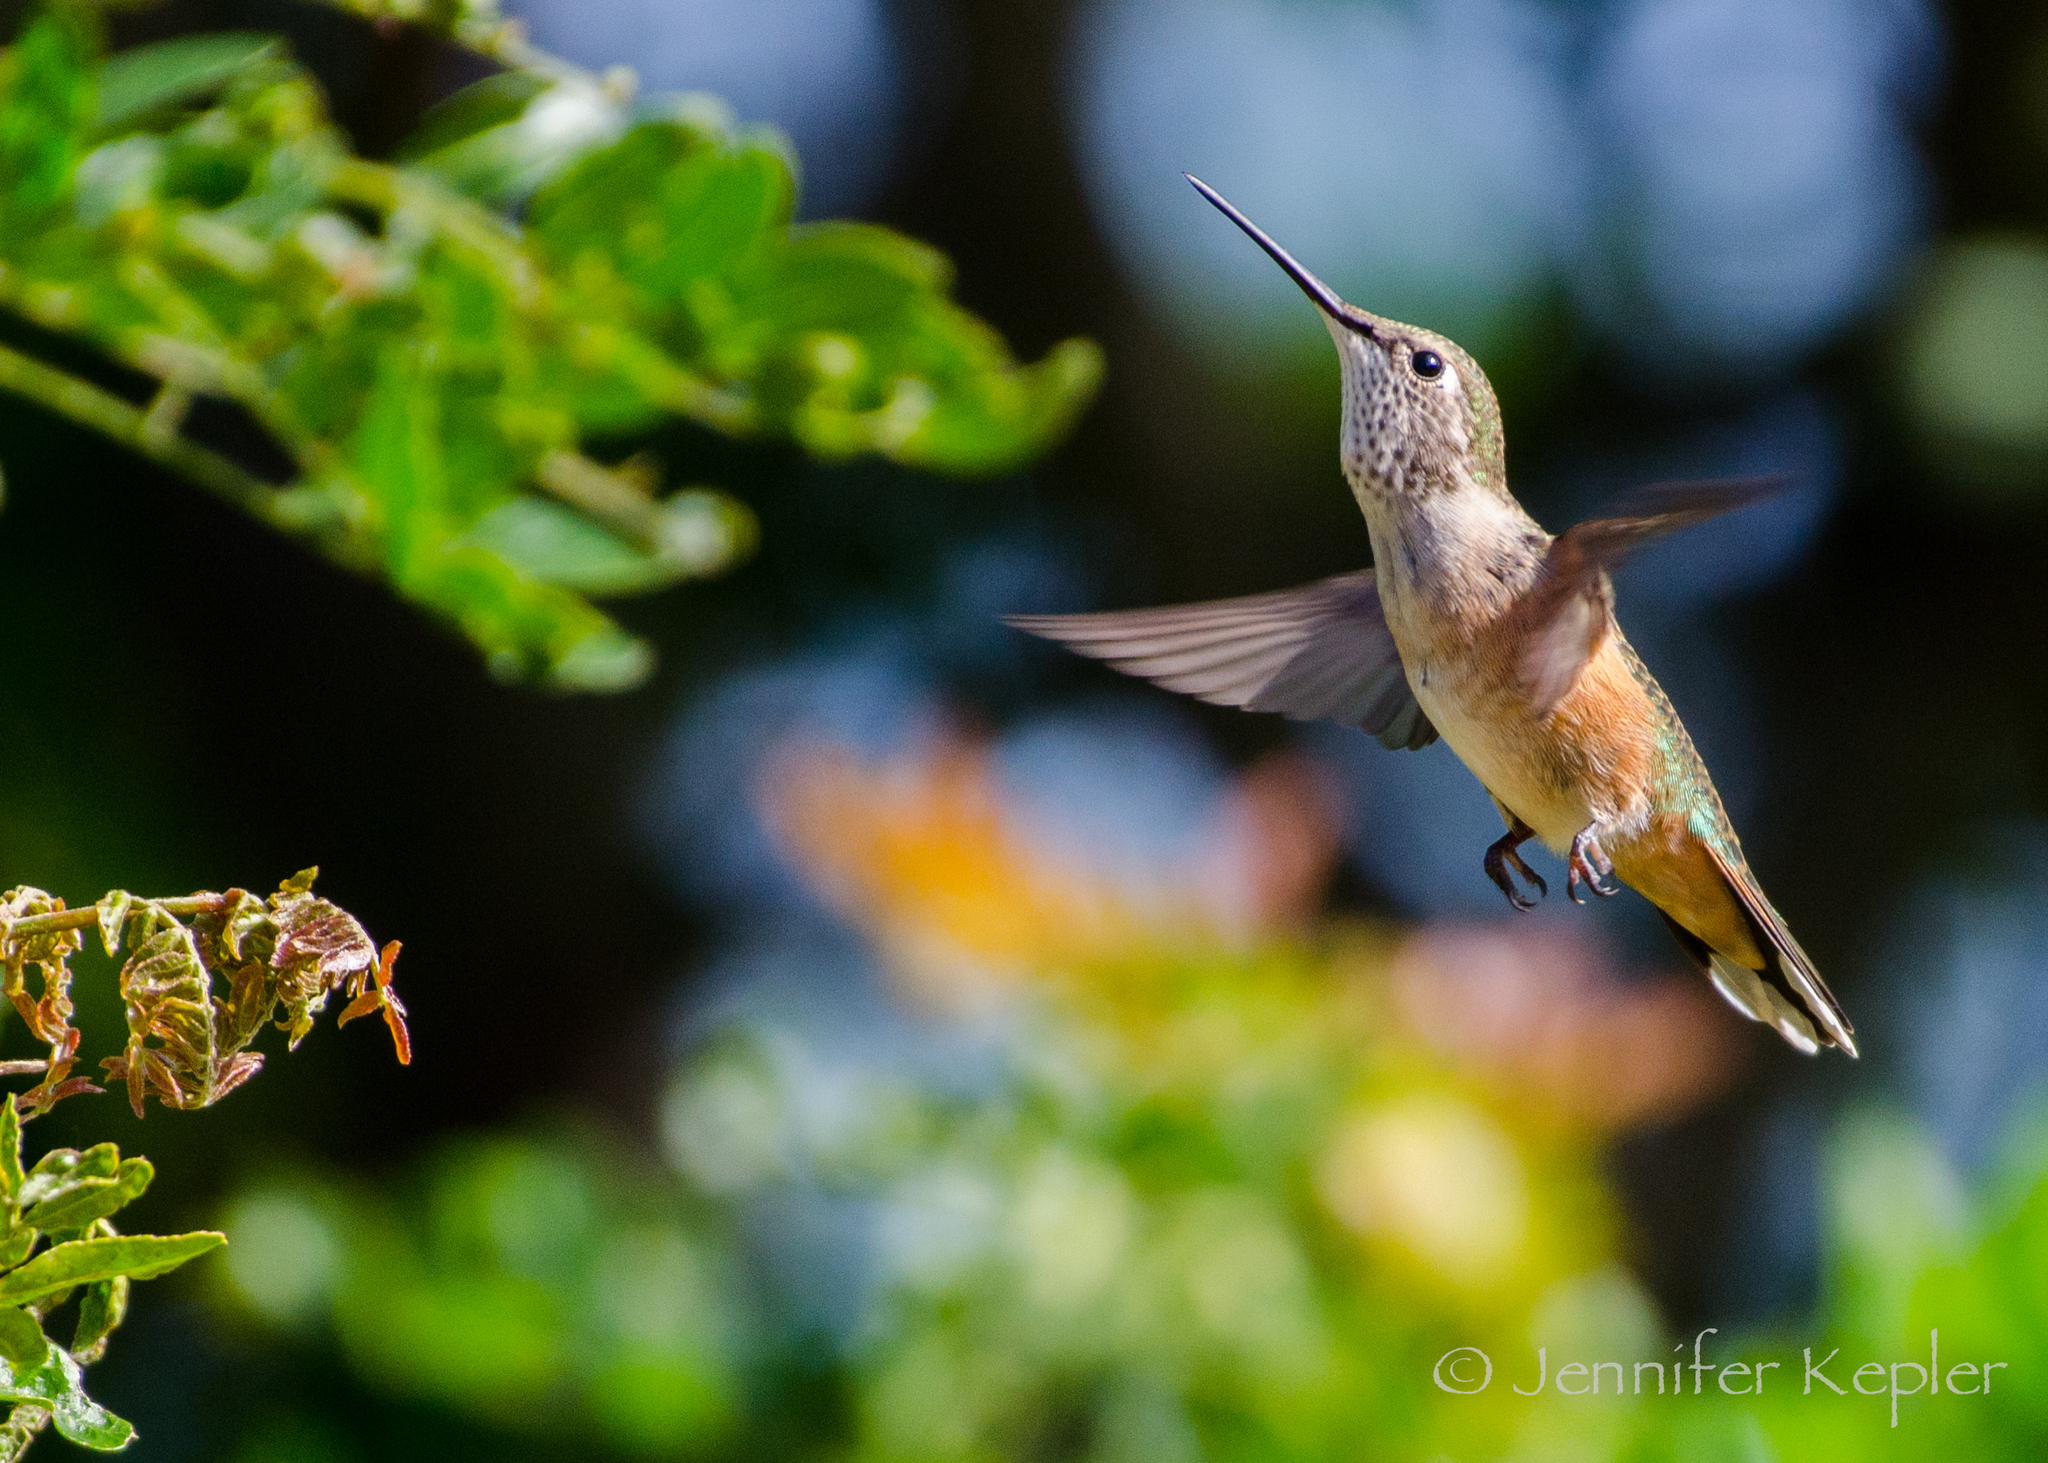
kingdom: Animalia
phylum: Chordata
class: Aves
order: Apodiformes
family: Trochilidae
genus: Selasphorus
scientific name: Selasphorus rufus
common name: Rufous hummingbird
